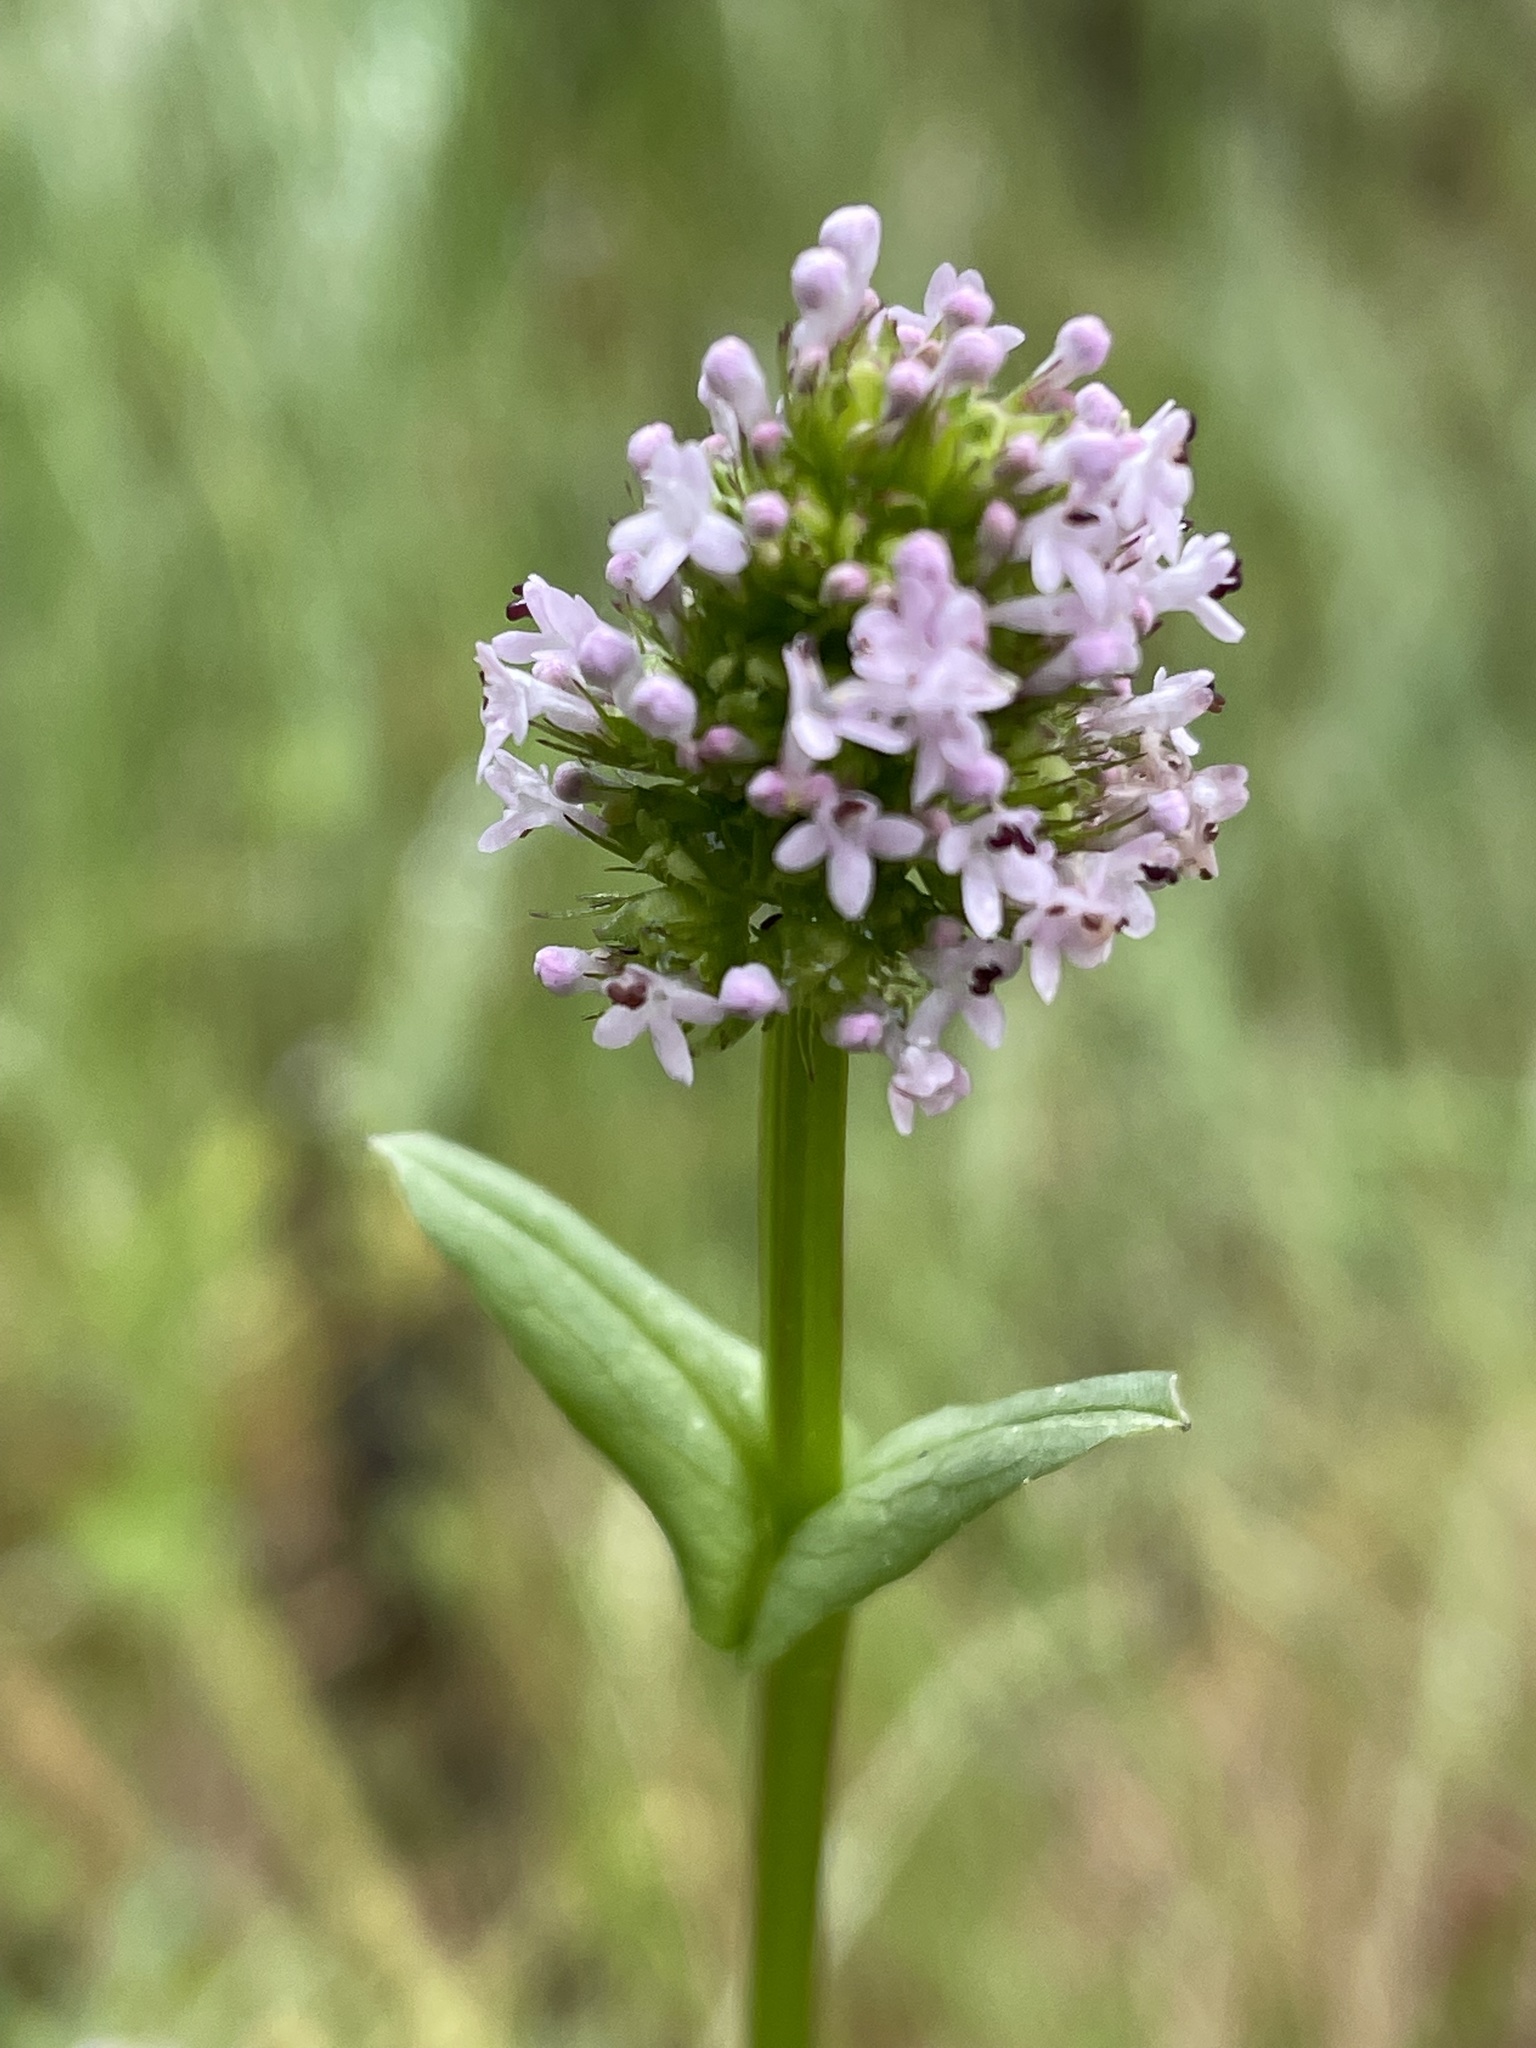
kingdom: Plantae
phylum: Tracheophyta
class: Magnoliopsida
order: Dipsacales
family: Caprifoliaceae
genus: Plectritis
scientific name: Plectritis brachystemon
